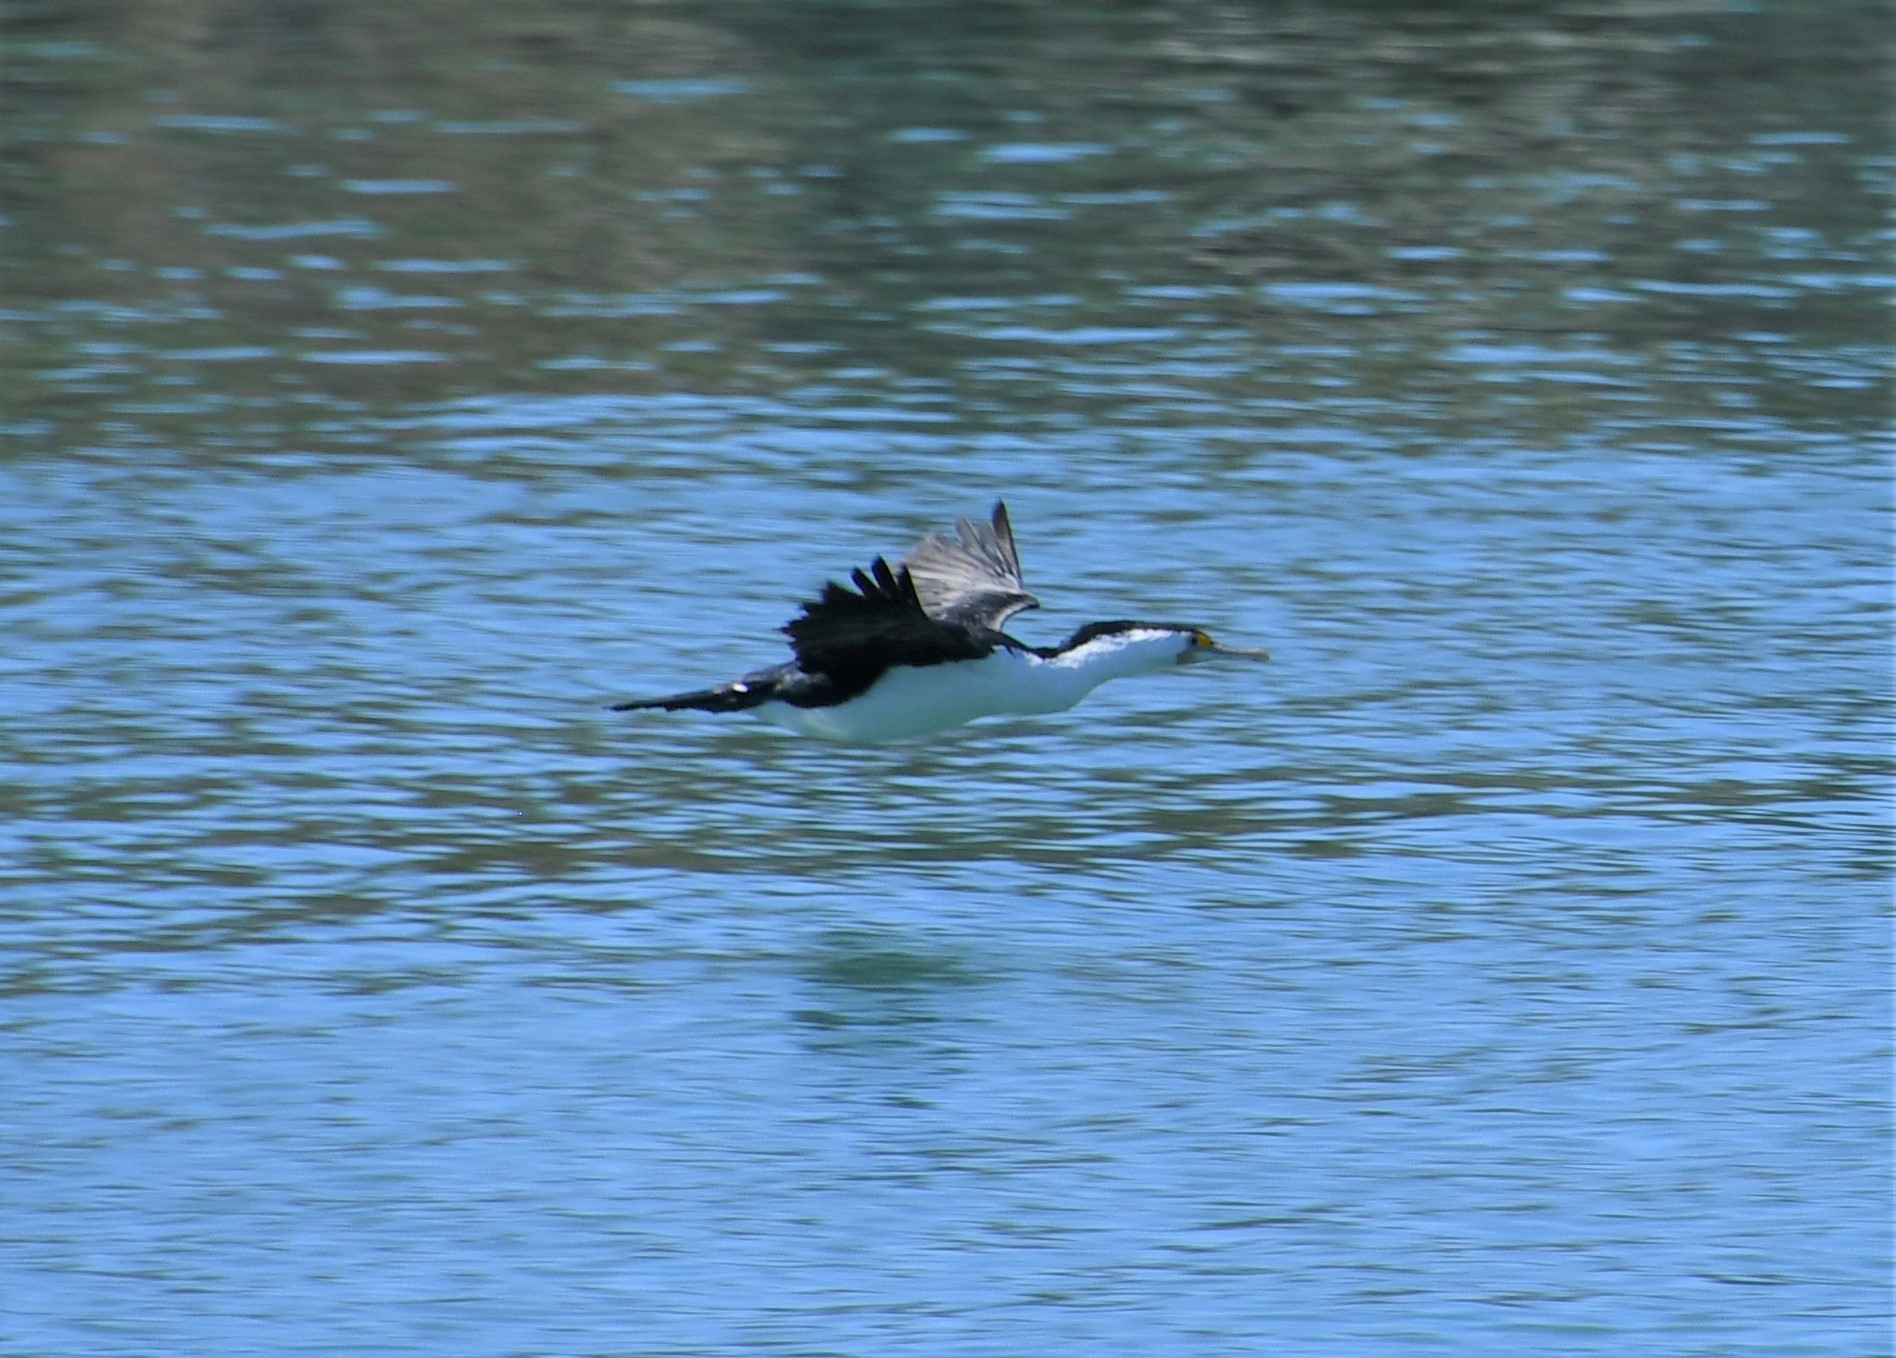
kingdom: Animalia
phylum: Chordata
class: Aves
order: Suliformes
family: Phalacrocoracidae
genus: Phalacrocorax
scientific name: Phalacrocorax varius
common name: Pied cormorant
